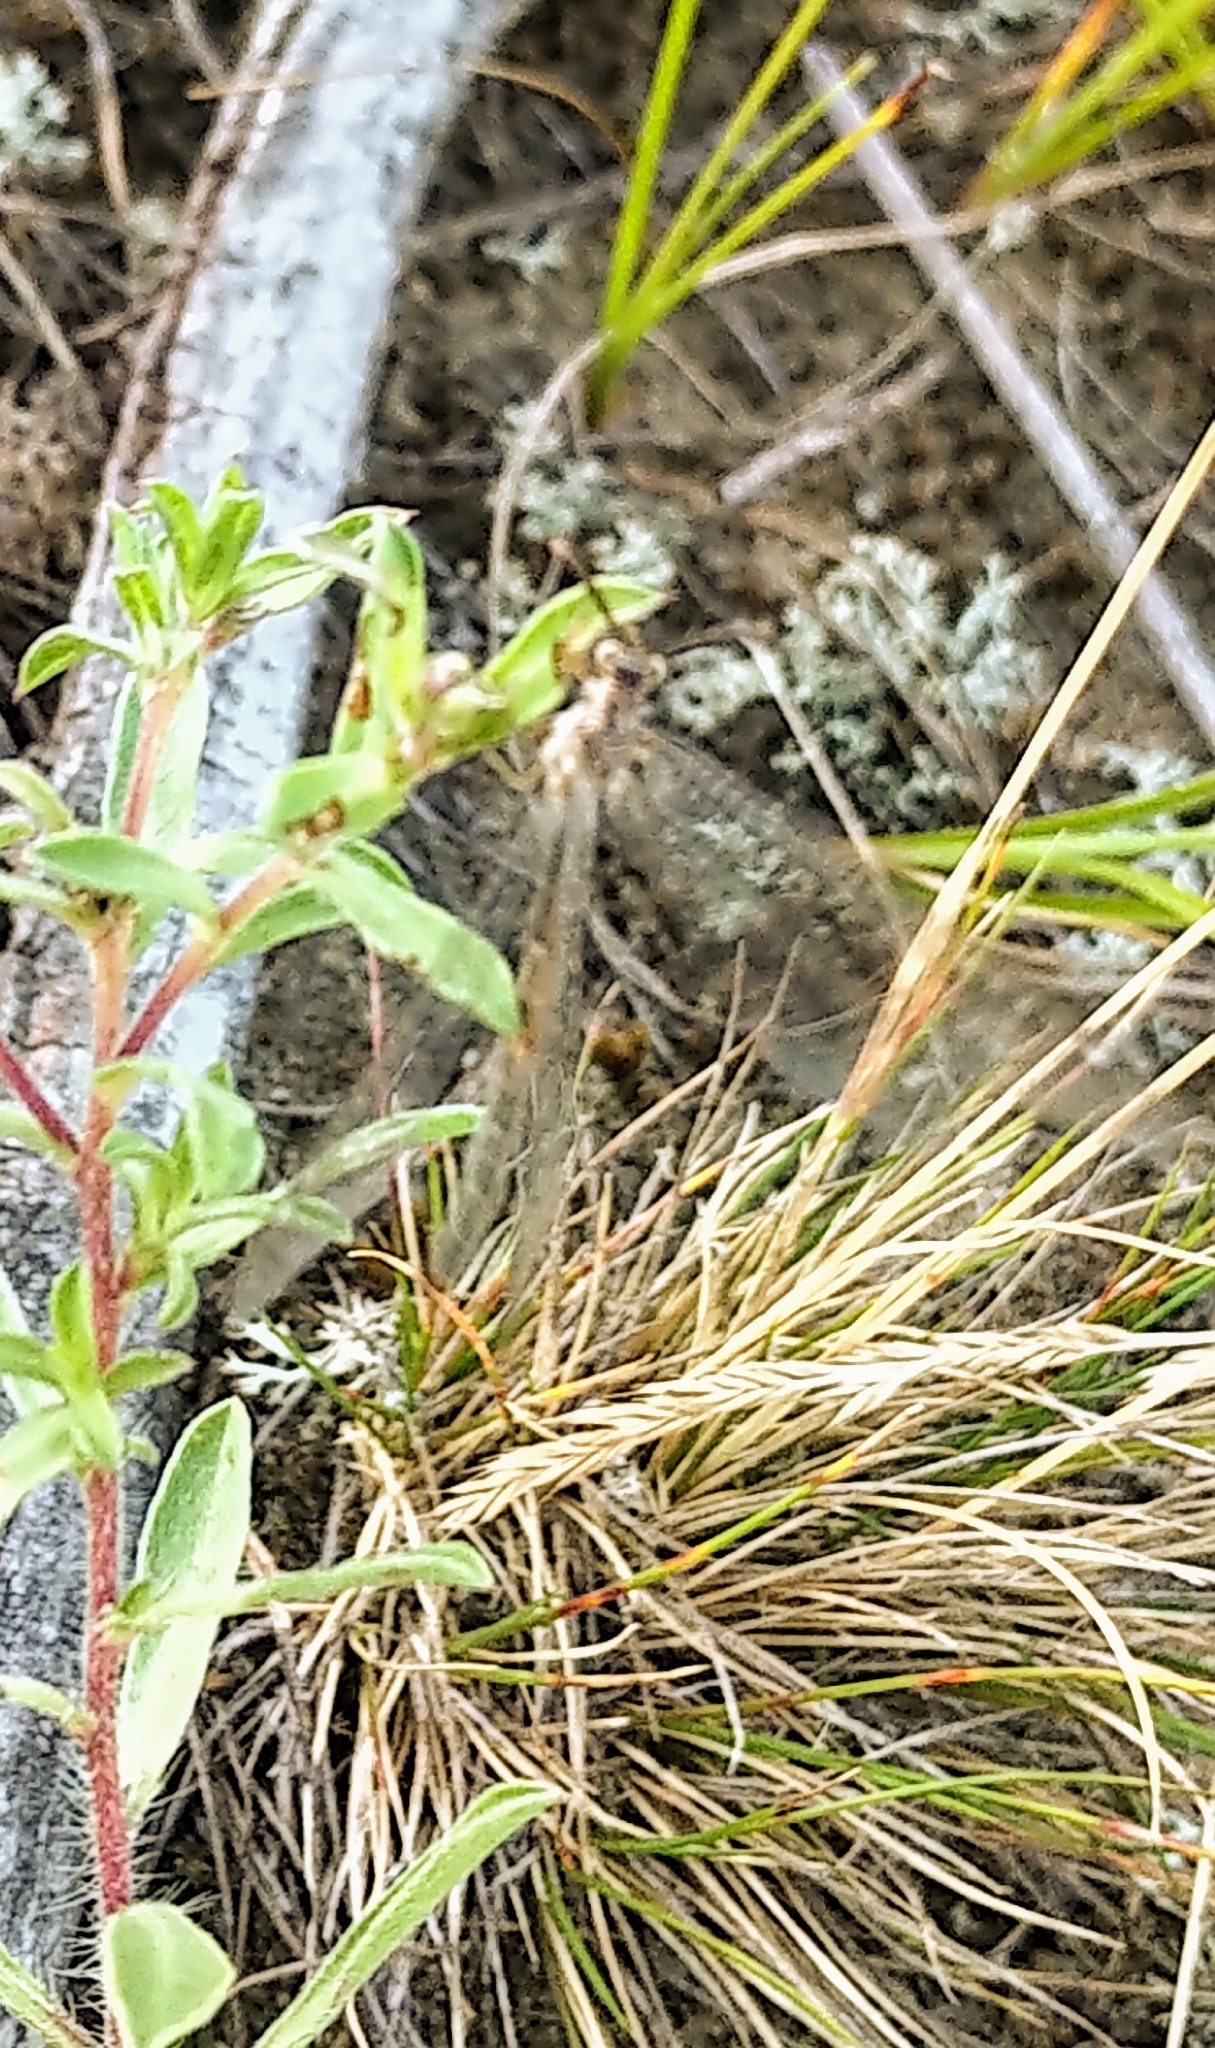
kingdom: Animalia
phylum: Arthropoda
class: Insecta
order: Neuroptera
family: Myrmeleontidae
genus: Myrmeleon
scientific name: Myrmeleon exitialis
